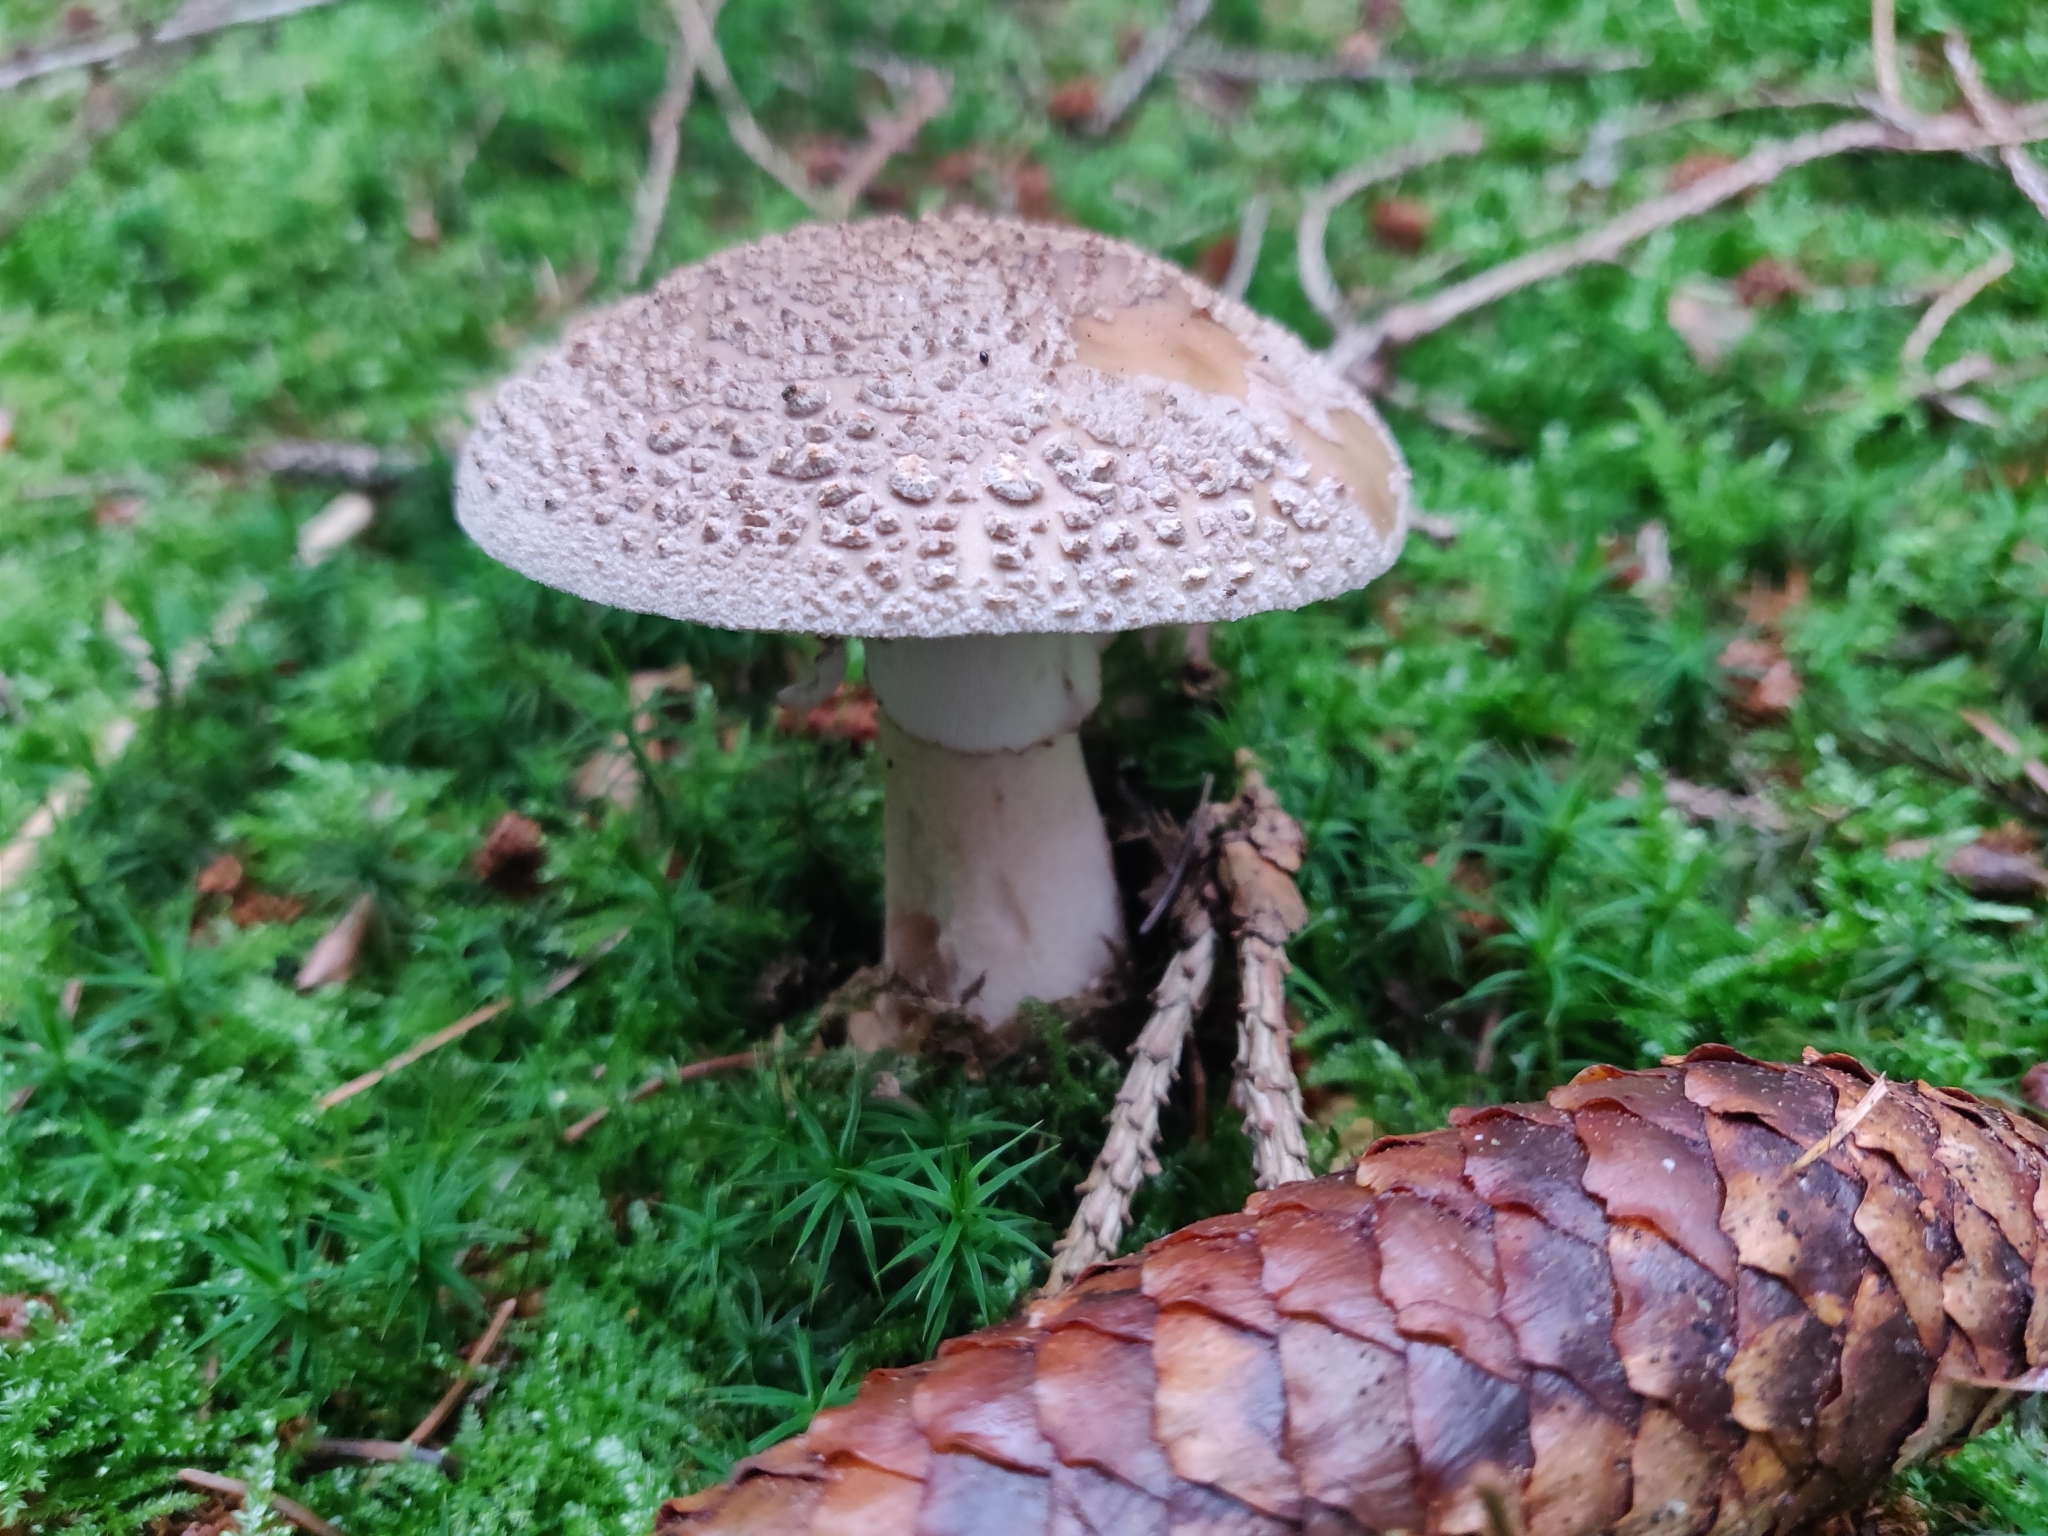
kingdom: Fungi
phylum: Basidiomycota
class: Agaricomycetes
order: Agaricales
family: Amanitaceae
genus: Amanita
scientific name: Amanita rubescens
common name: Blusher
